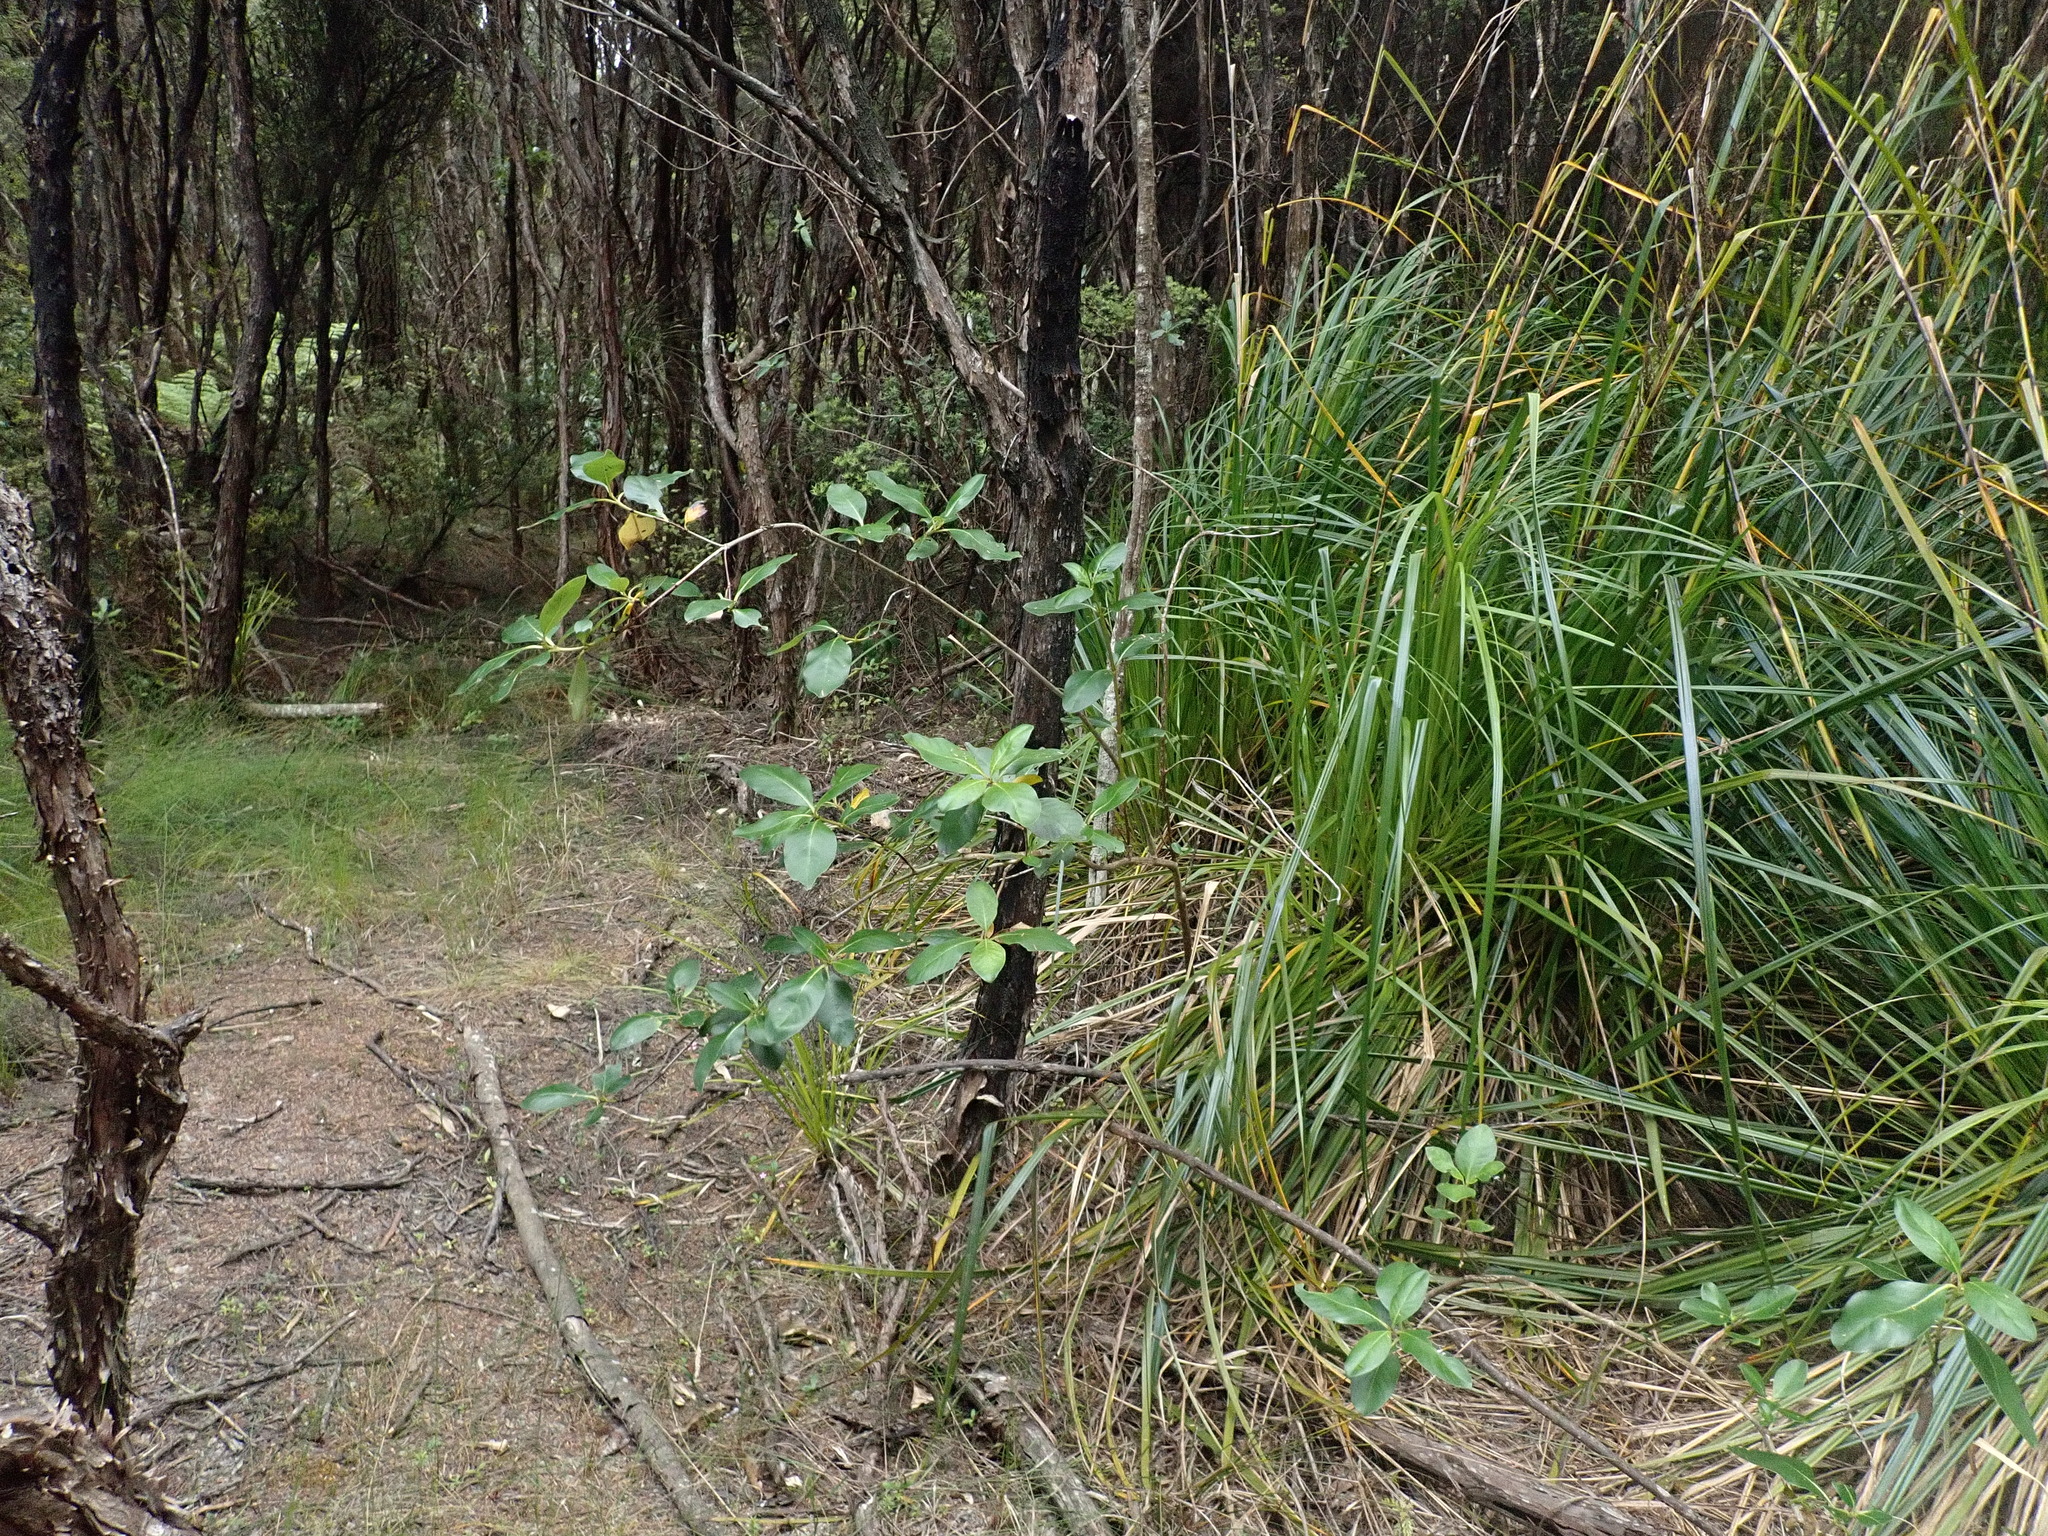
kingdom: Plantae
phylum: Tracheophyta
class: Magnoliopsida
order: Gentianales
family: Rubiaceae
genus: Coprosma
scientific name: Coprosma lucida
